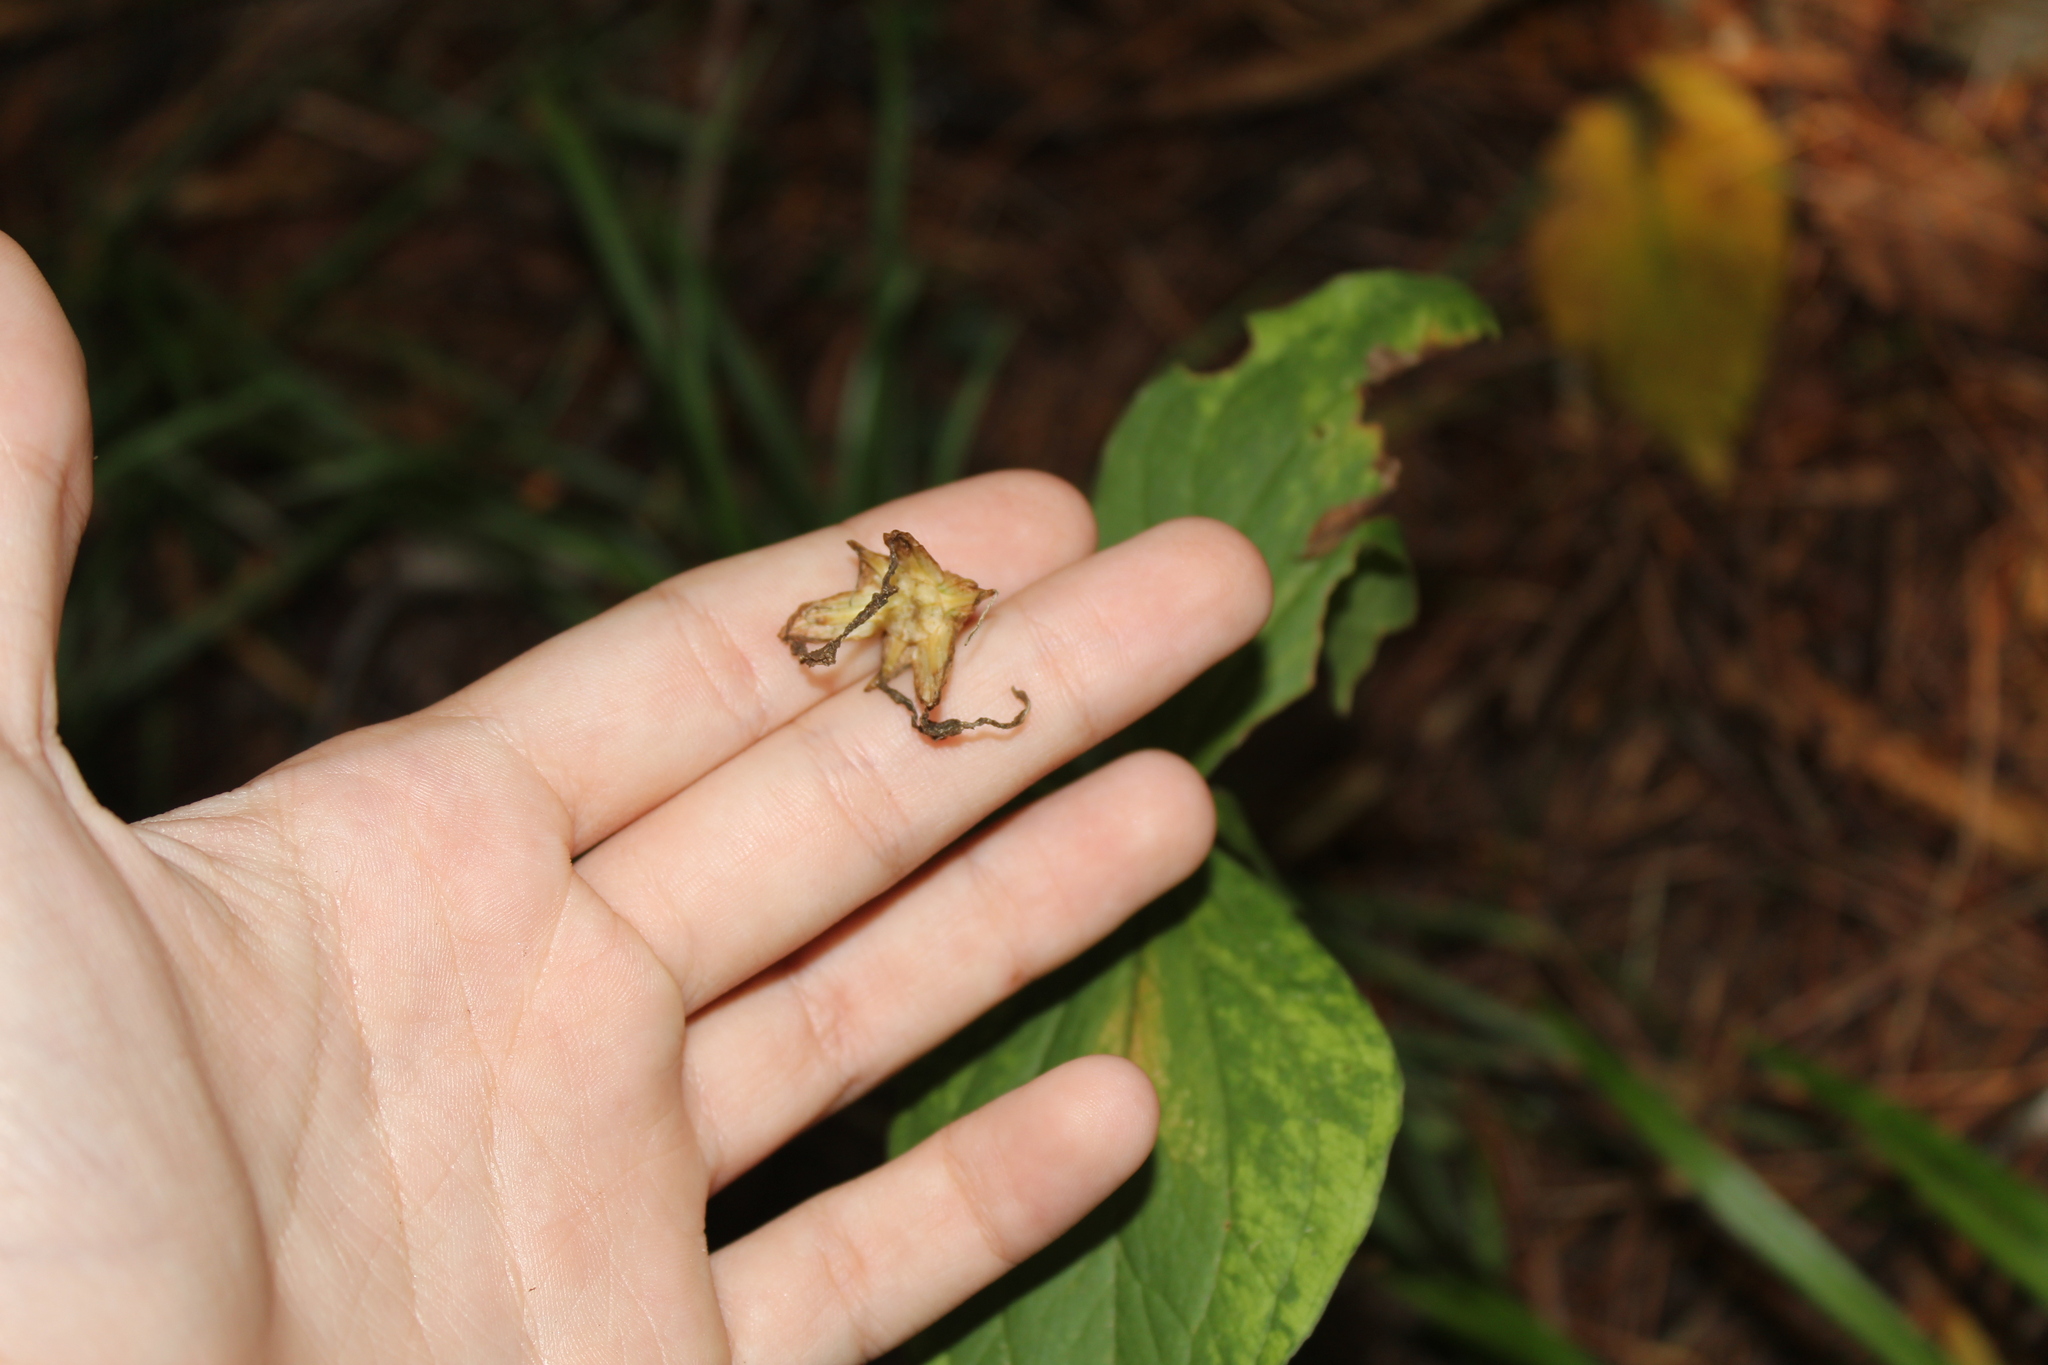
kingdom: Plantae
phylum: Tracheophyta
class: Liliopsida
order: Liliales
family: Melanthiaceae
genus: Trillium
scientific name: Trillium grandiflorum
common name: Great white trillium
